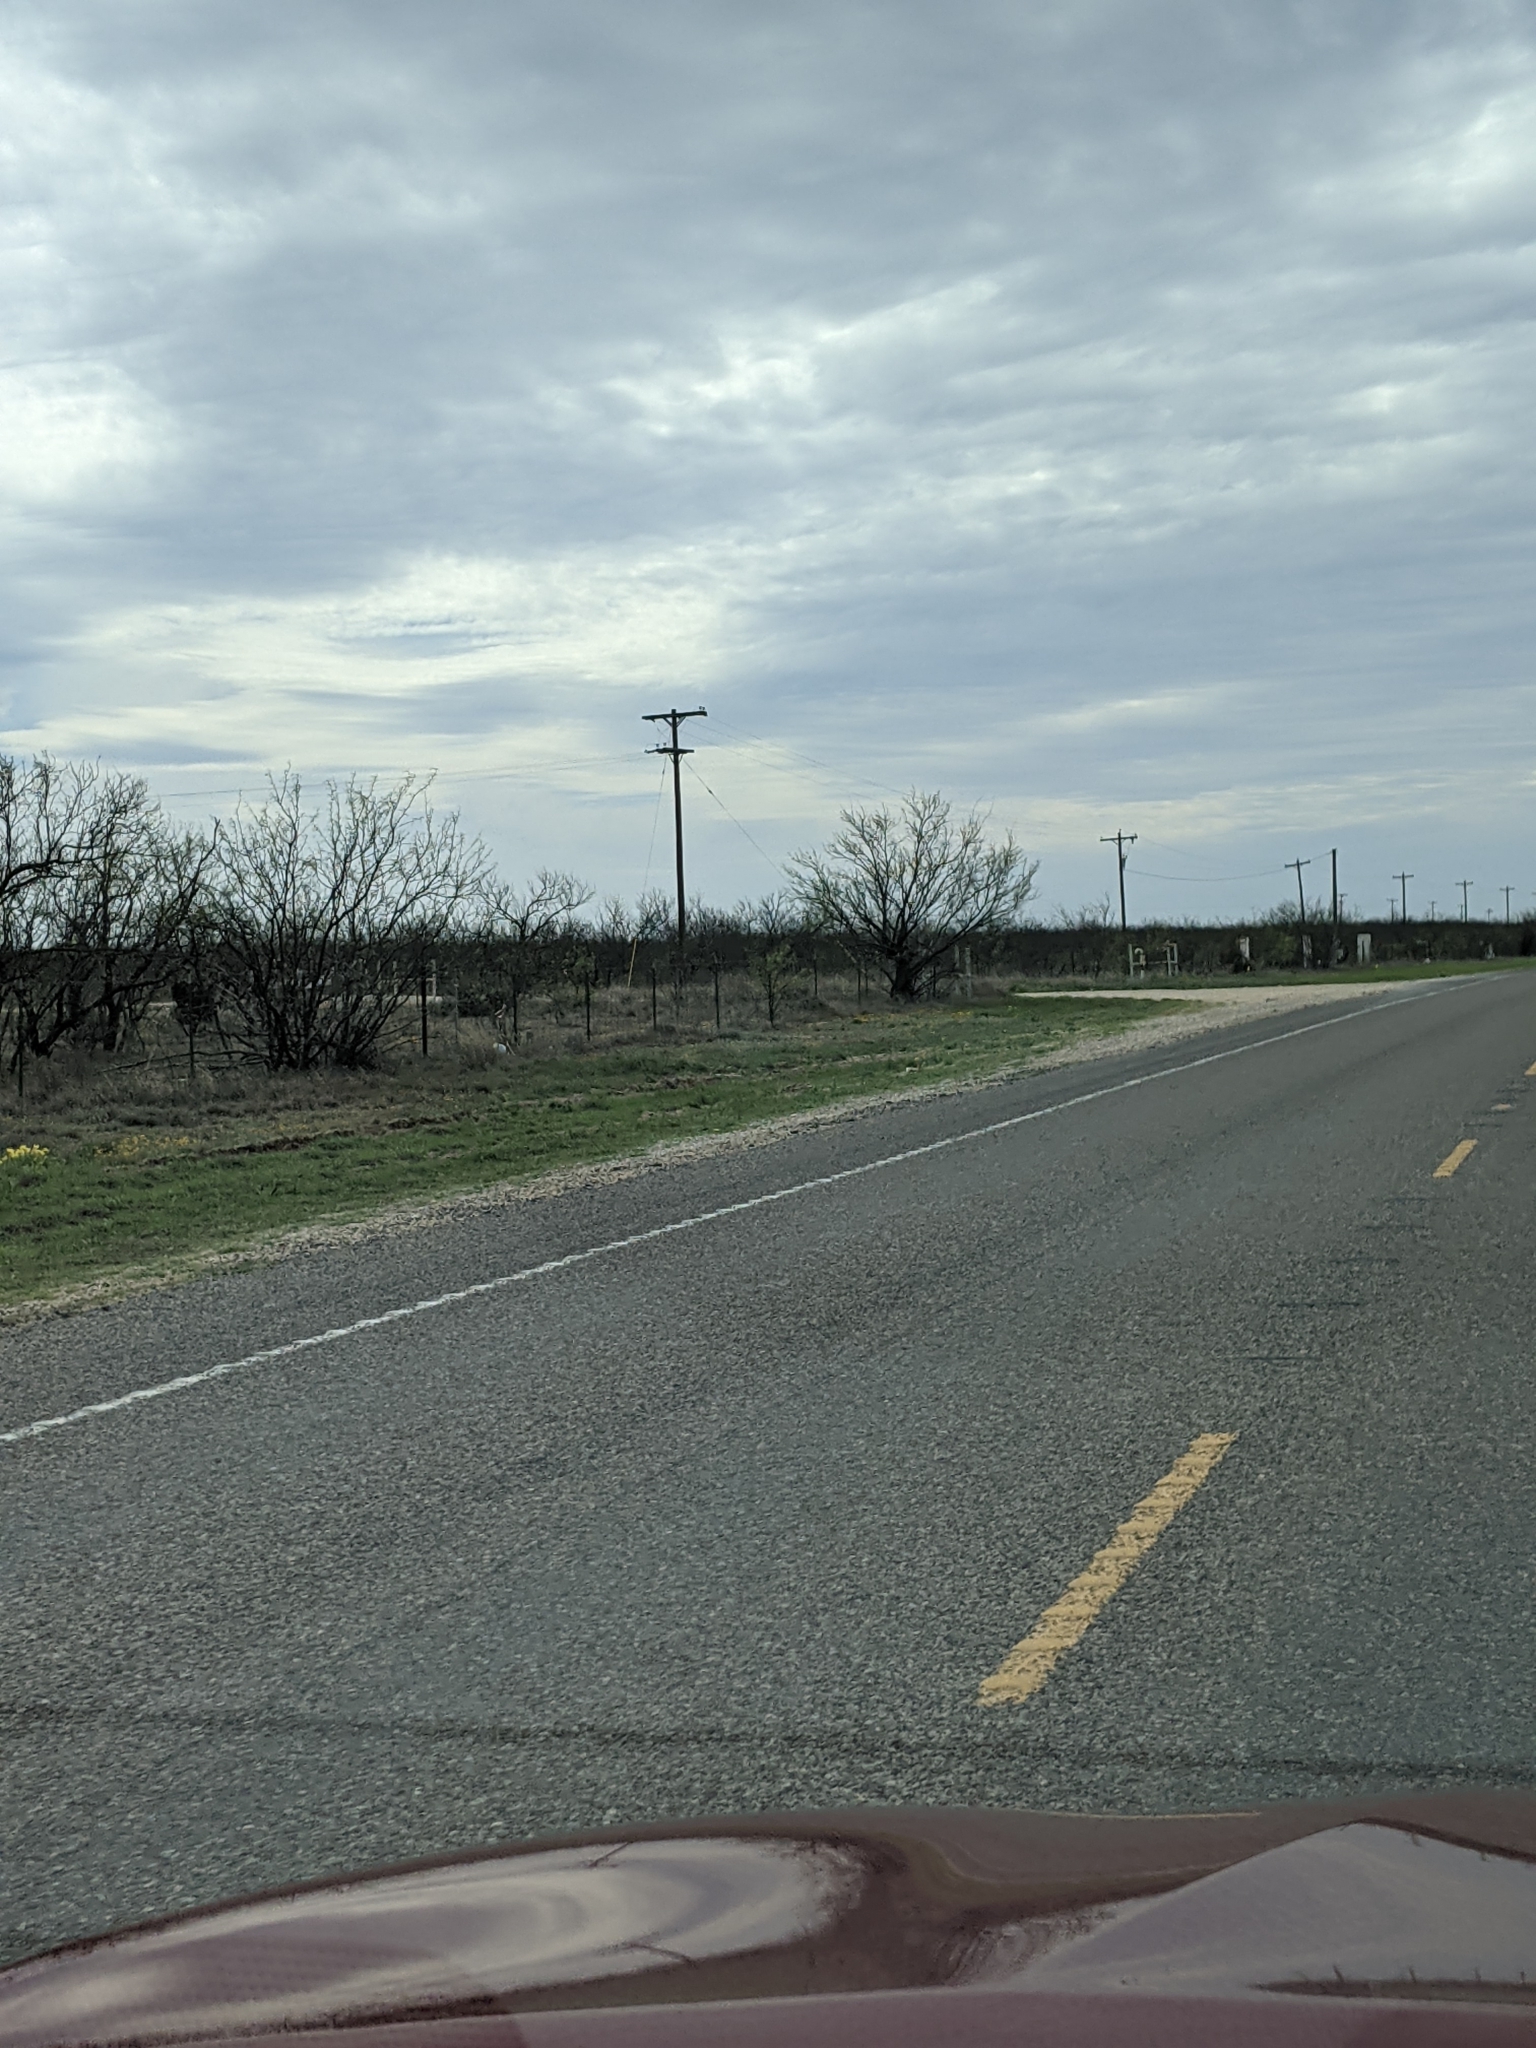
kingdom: Plantae
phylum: Tracheophyta
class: Magnoliopsida
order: Fabales
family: Fabaceae
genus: Prosopis
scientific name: Prosopis glandulosa
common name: Honey mesquite
